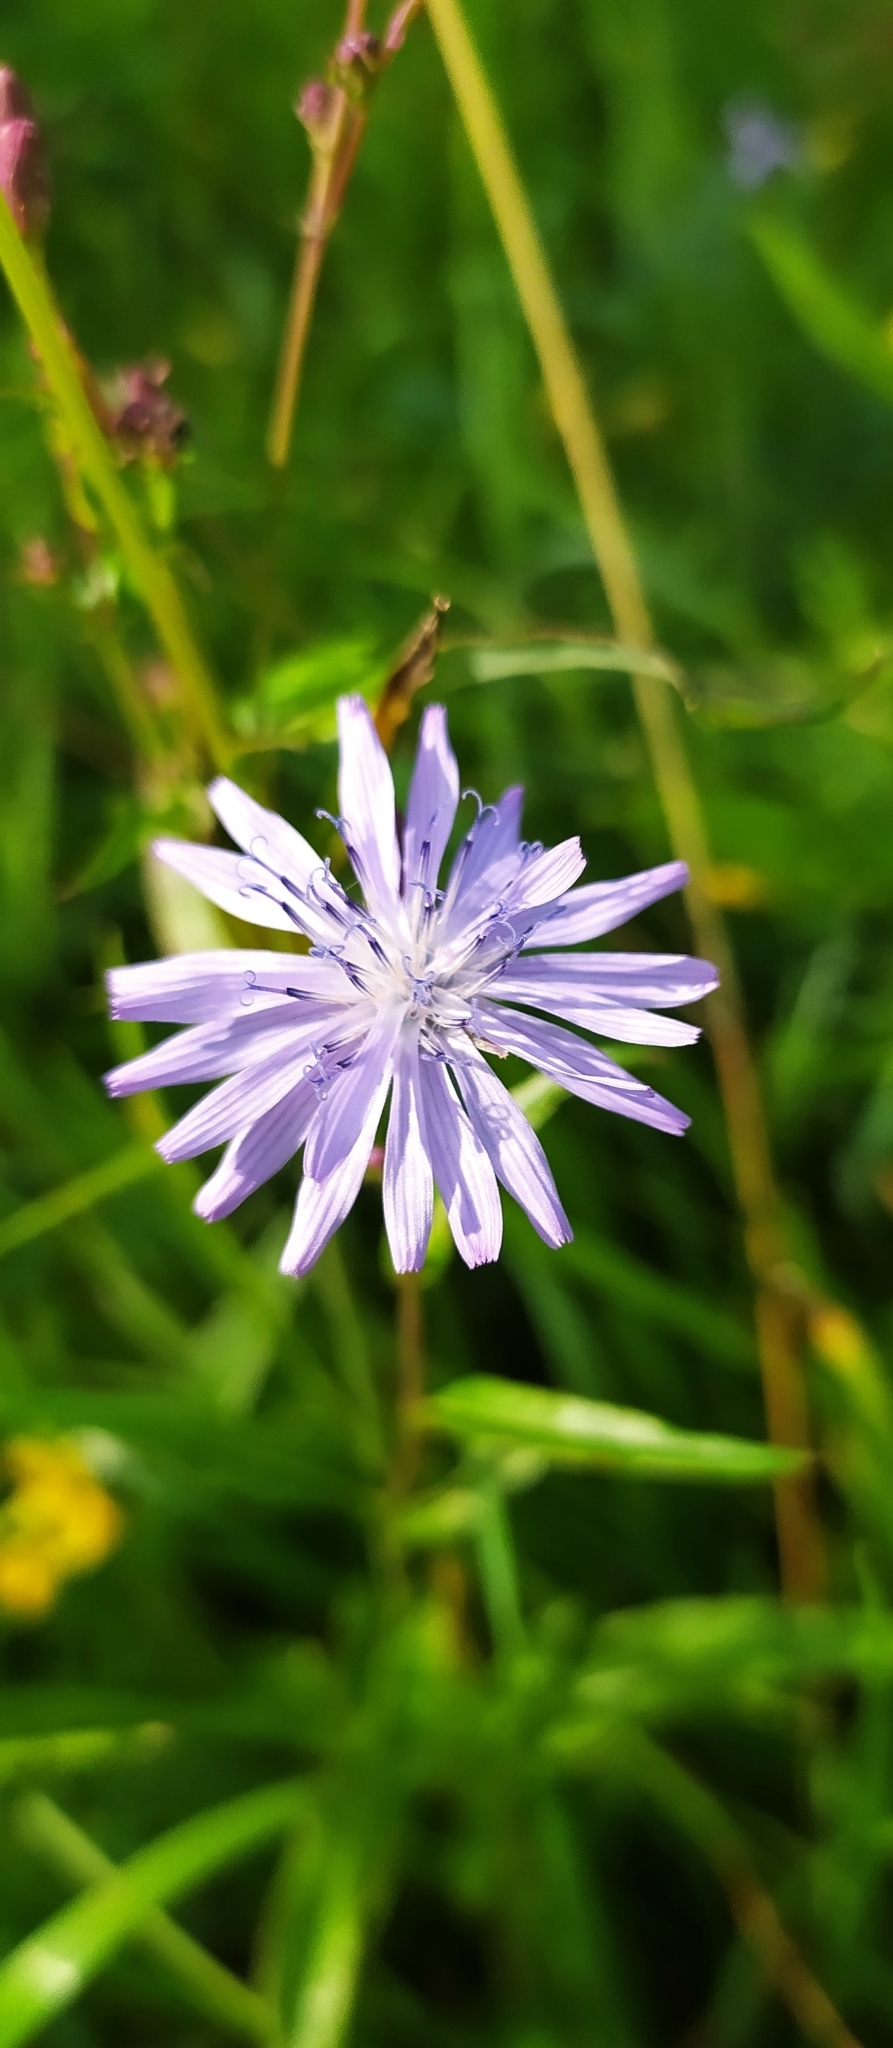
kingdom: Plantae
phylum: Tracheophyta
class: Magnoliopsida
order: Asterales
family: Asteraceae
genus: Lactuca
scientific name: Lactuca sibirica
